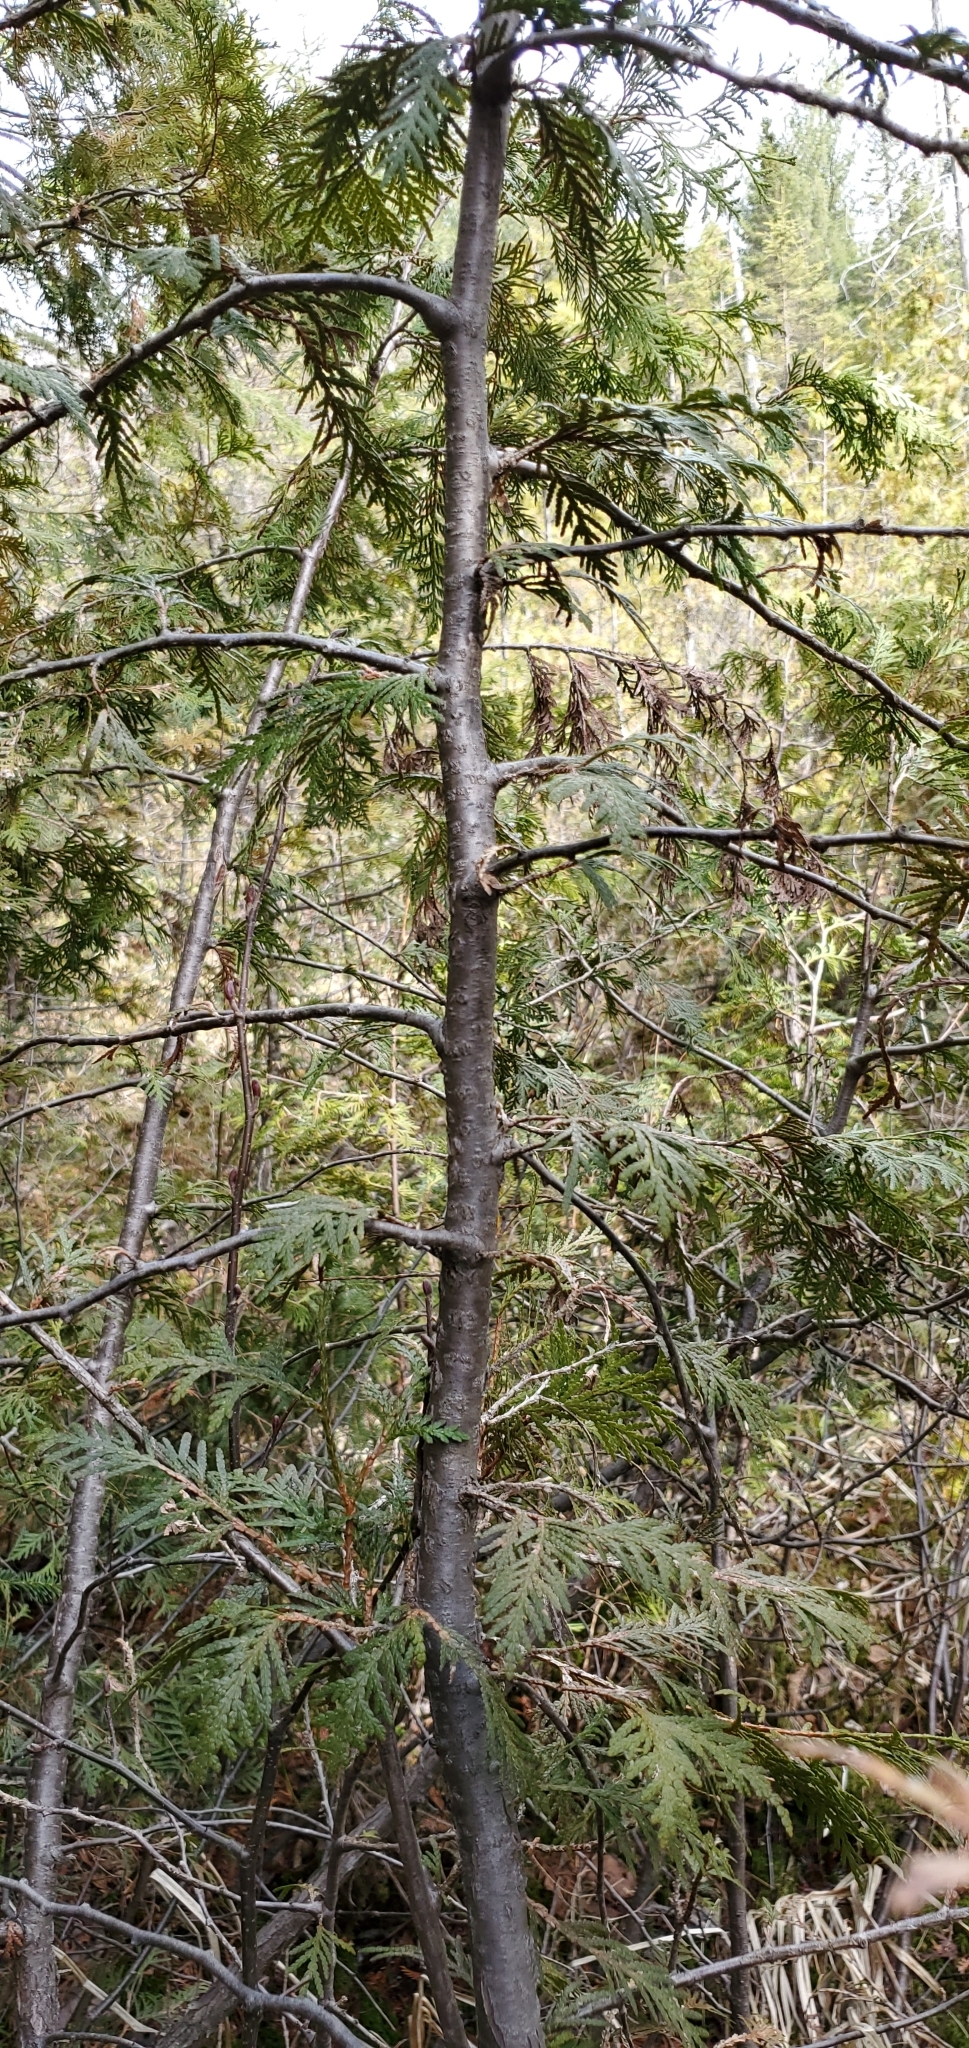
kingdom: Plantae
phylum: Tracheophyta
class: Pinopsida
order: Pinales
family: Cupressaceae
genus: Thuja
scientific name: Thuja occidentalis
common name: Northern white-cedar
